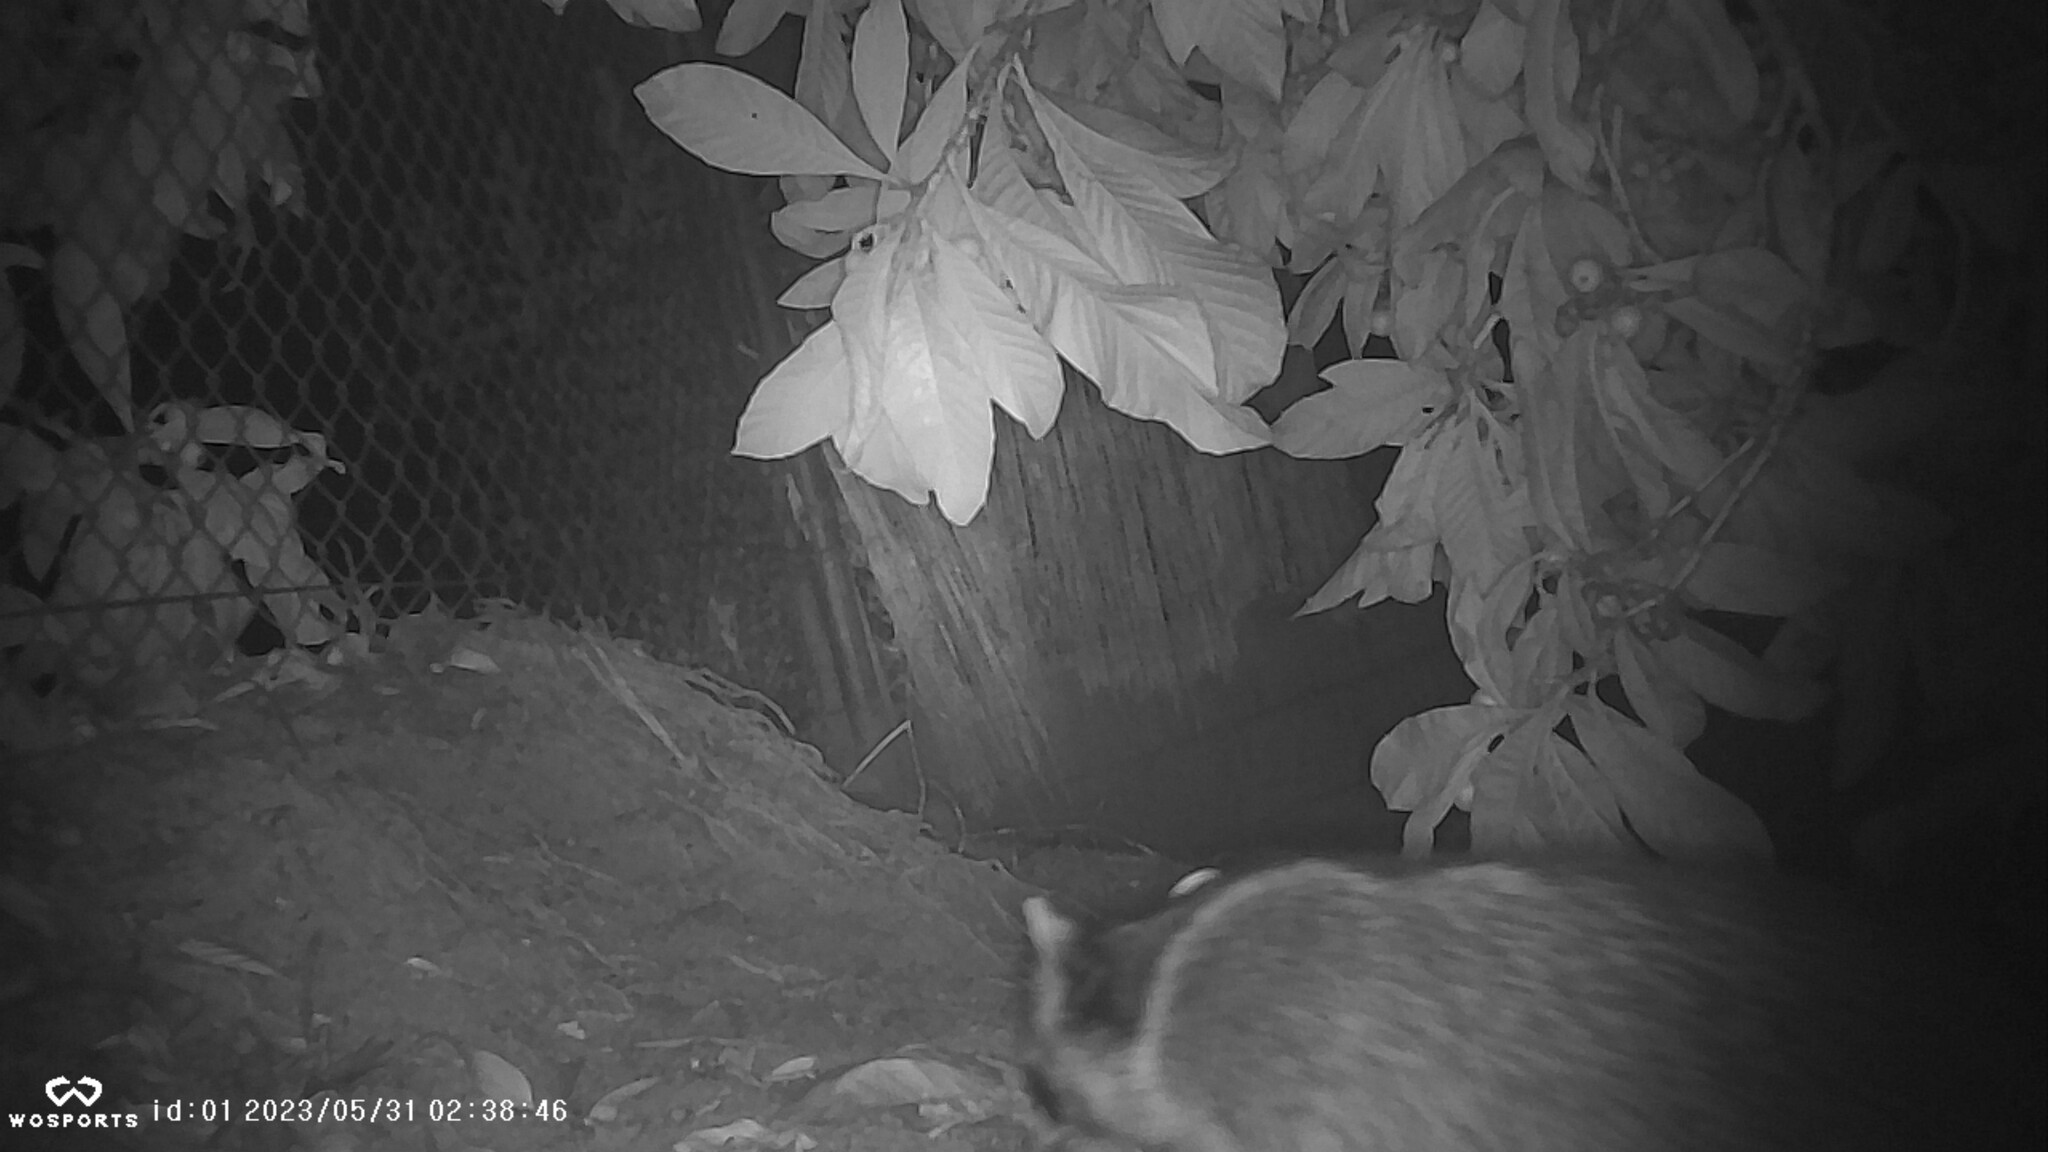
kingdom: Animalia
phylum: Chordata
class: Mammalia
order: Carnivora
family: Procyonidae
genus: Procyon
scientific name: Procyon lotor
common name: Raccoon
